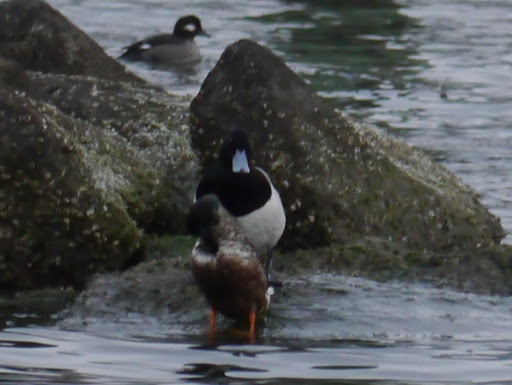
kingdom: Animalia
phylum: Chordata
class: Aves
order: Anseriformes
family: Anatidae
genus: Aythya
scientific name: Aythya marila
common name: Greater scaup
